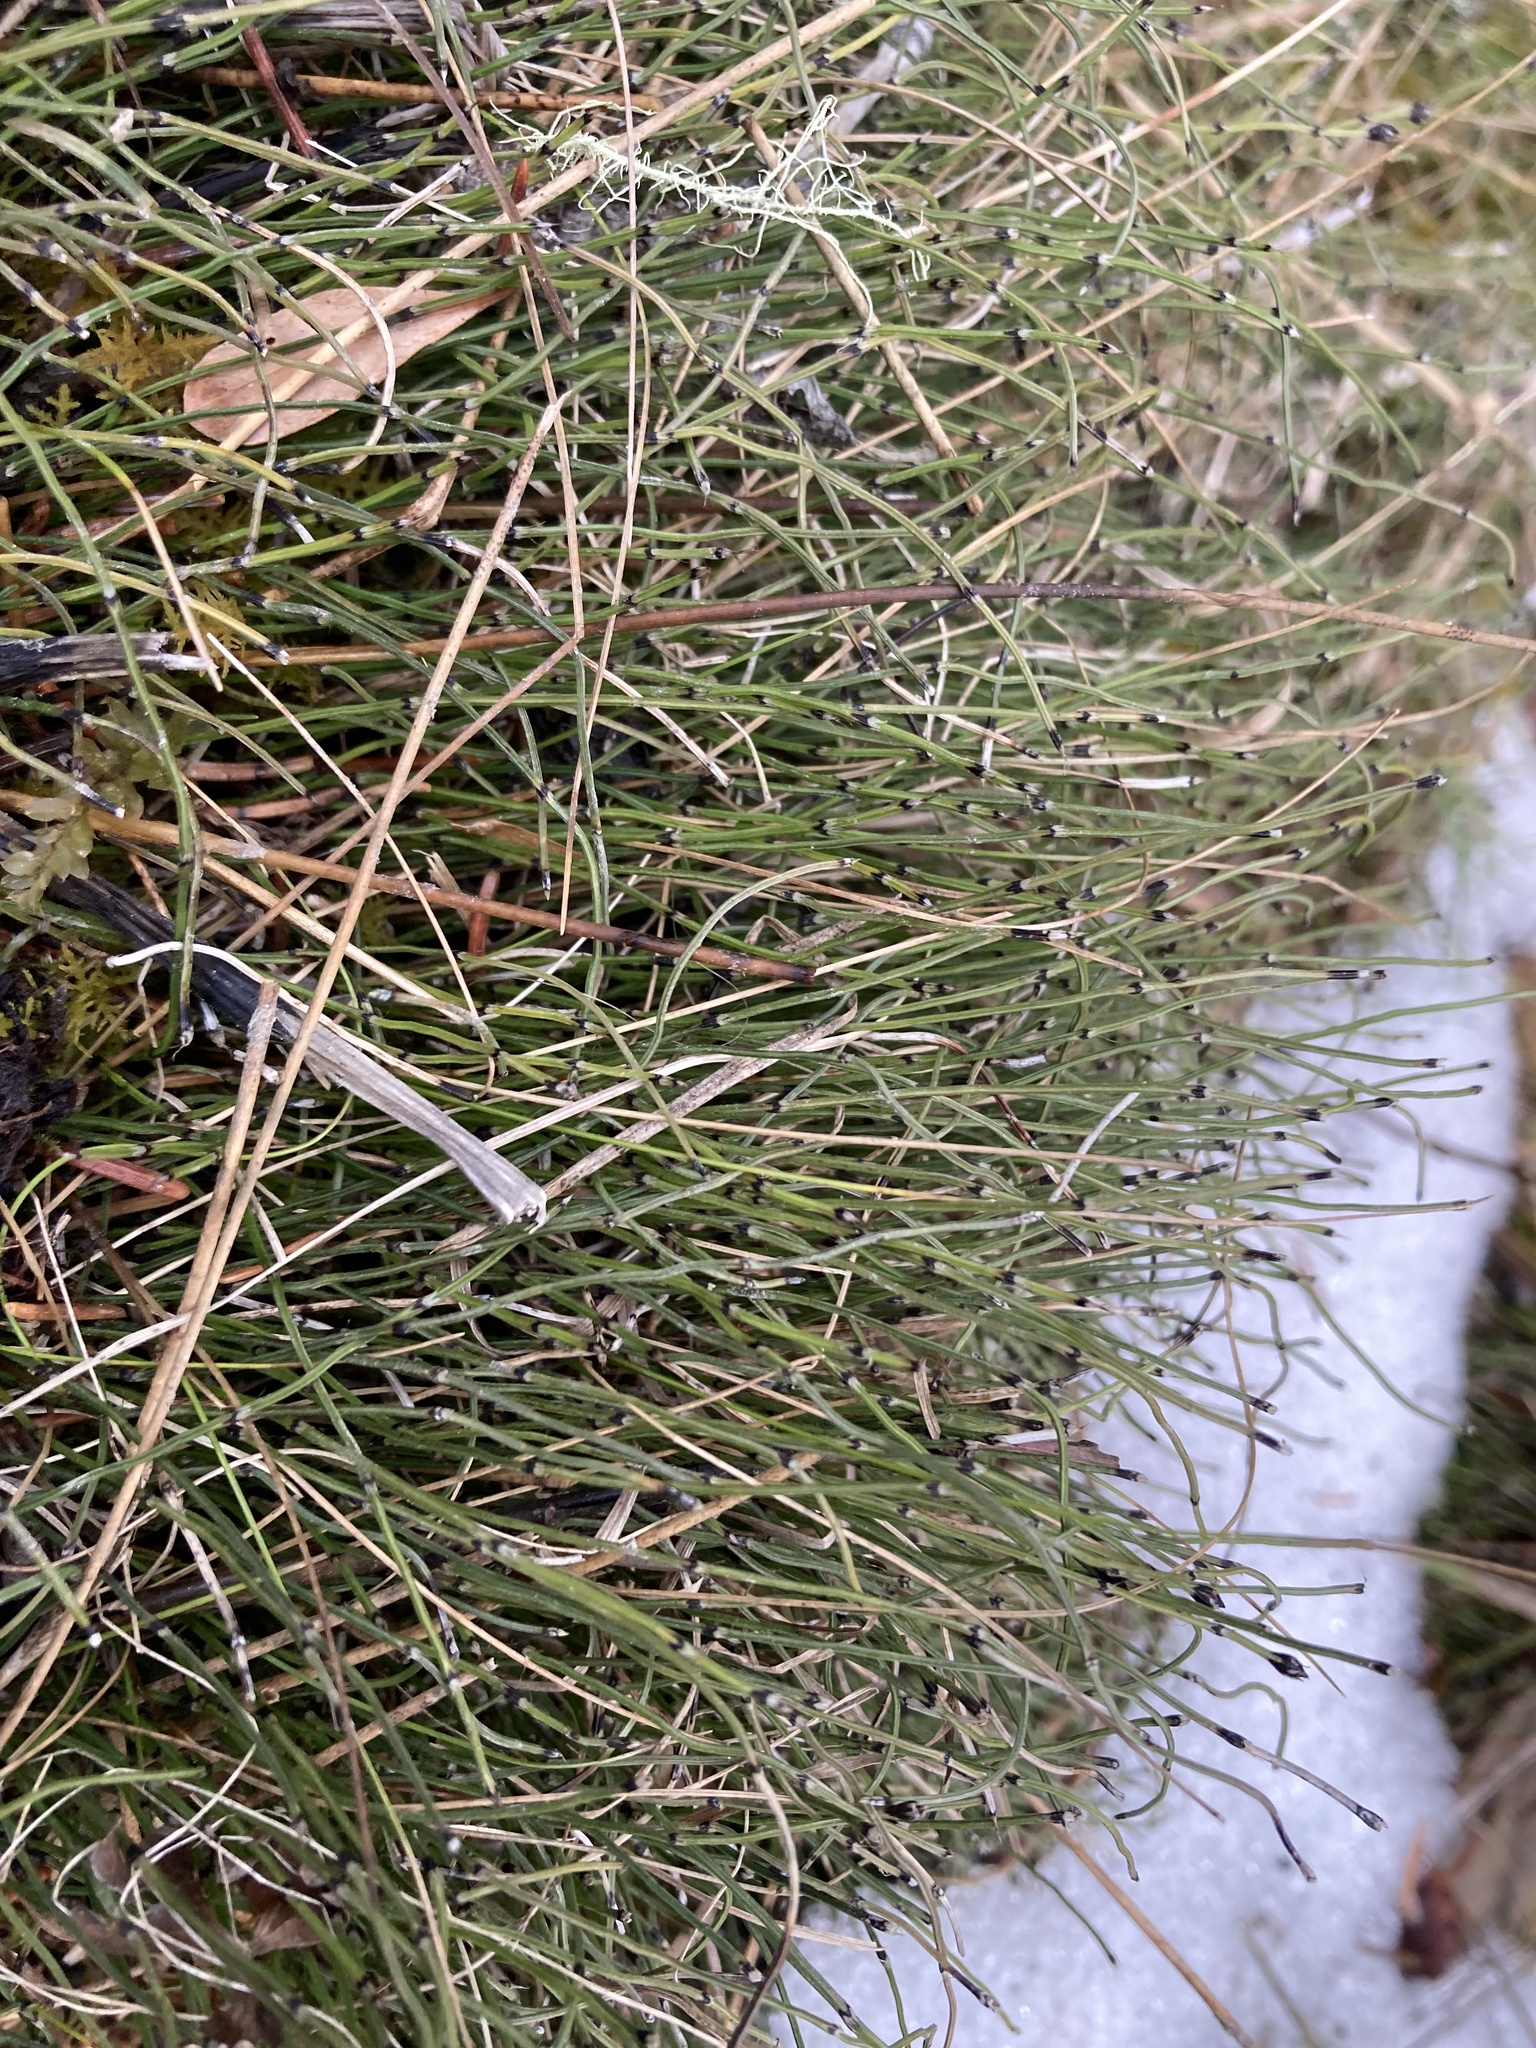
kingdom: Plantae
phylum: Tracheophyta
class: Polypodiopsida
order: Equisetales
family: Equisetaceae
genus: Equisetum
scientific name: Equisetum scirpoides
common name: Delicate horsetail
